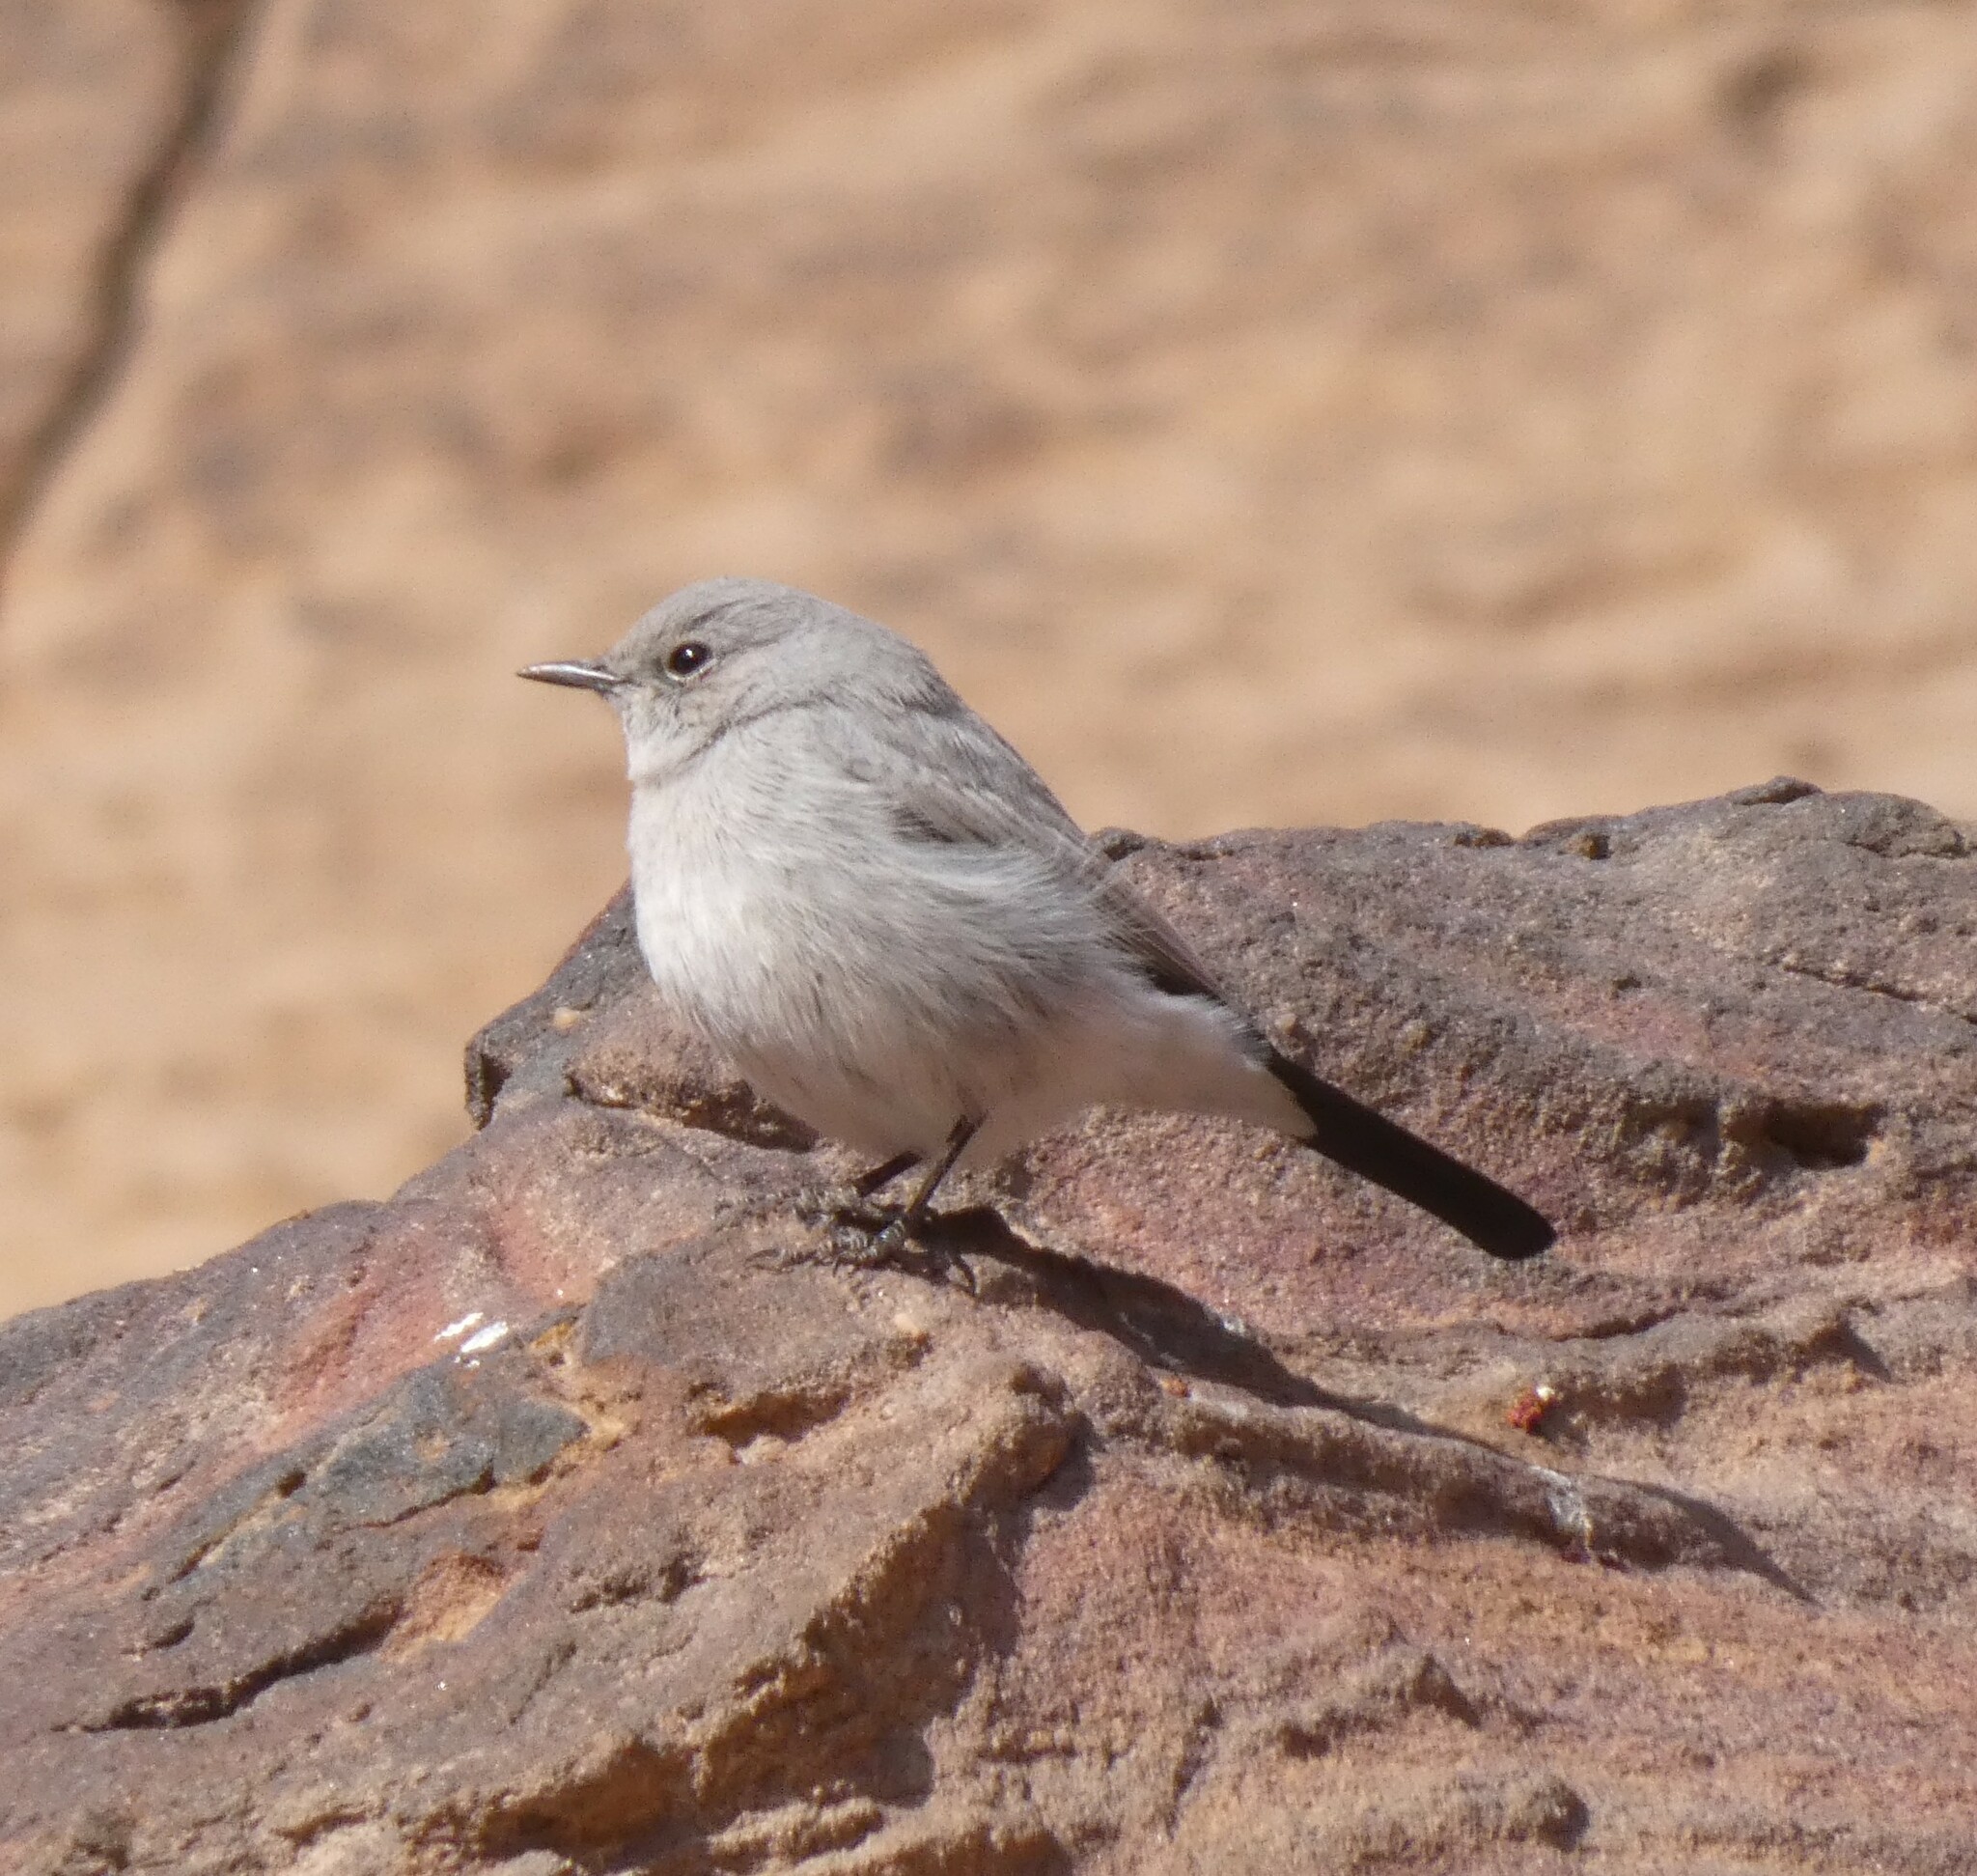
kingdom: Animalia
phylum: Chordata
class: Aves
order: Passeriformes
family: Muscicapidae
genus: Oenanthe
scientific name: Oenanthe melanura
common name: Blackstart
